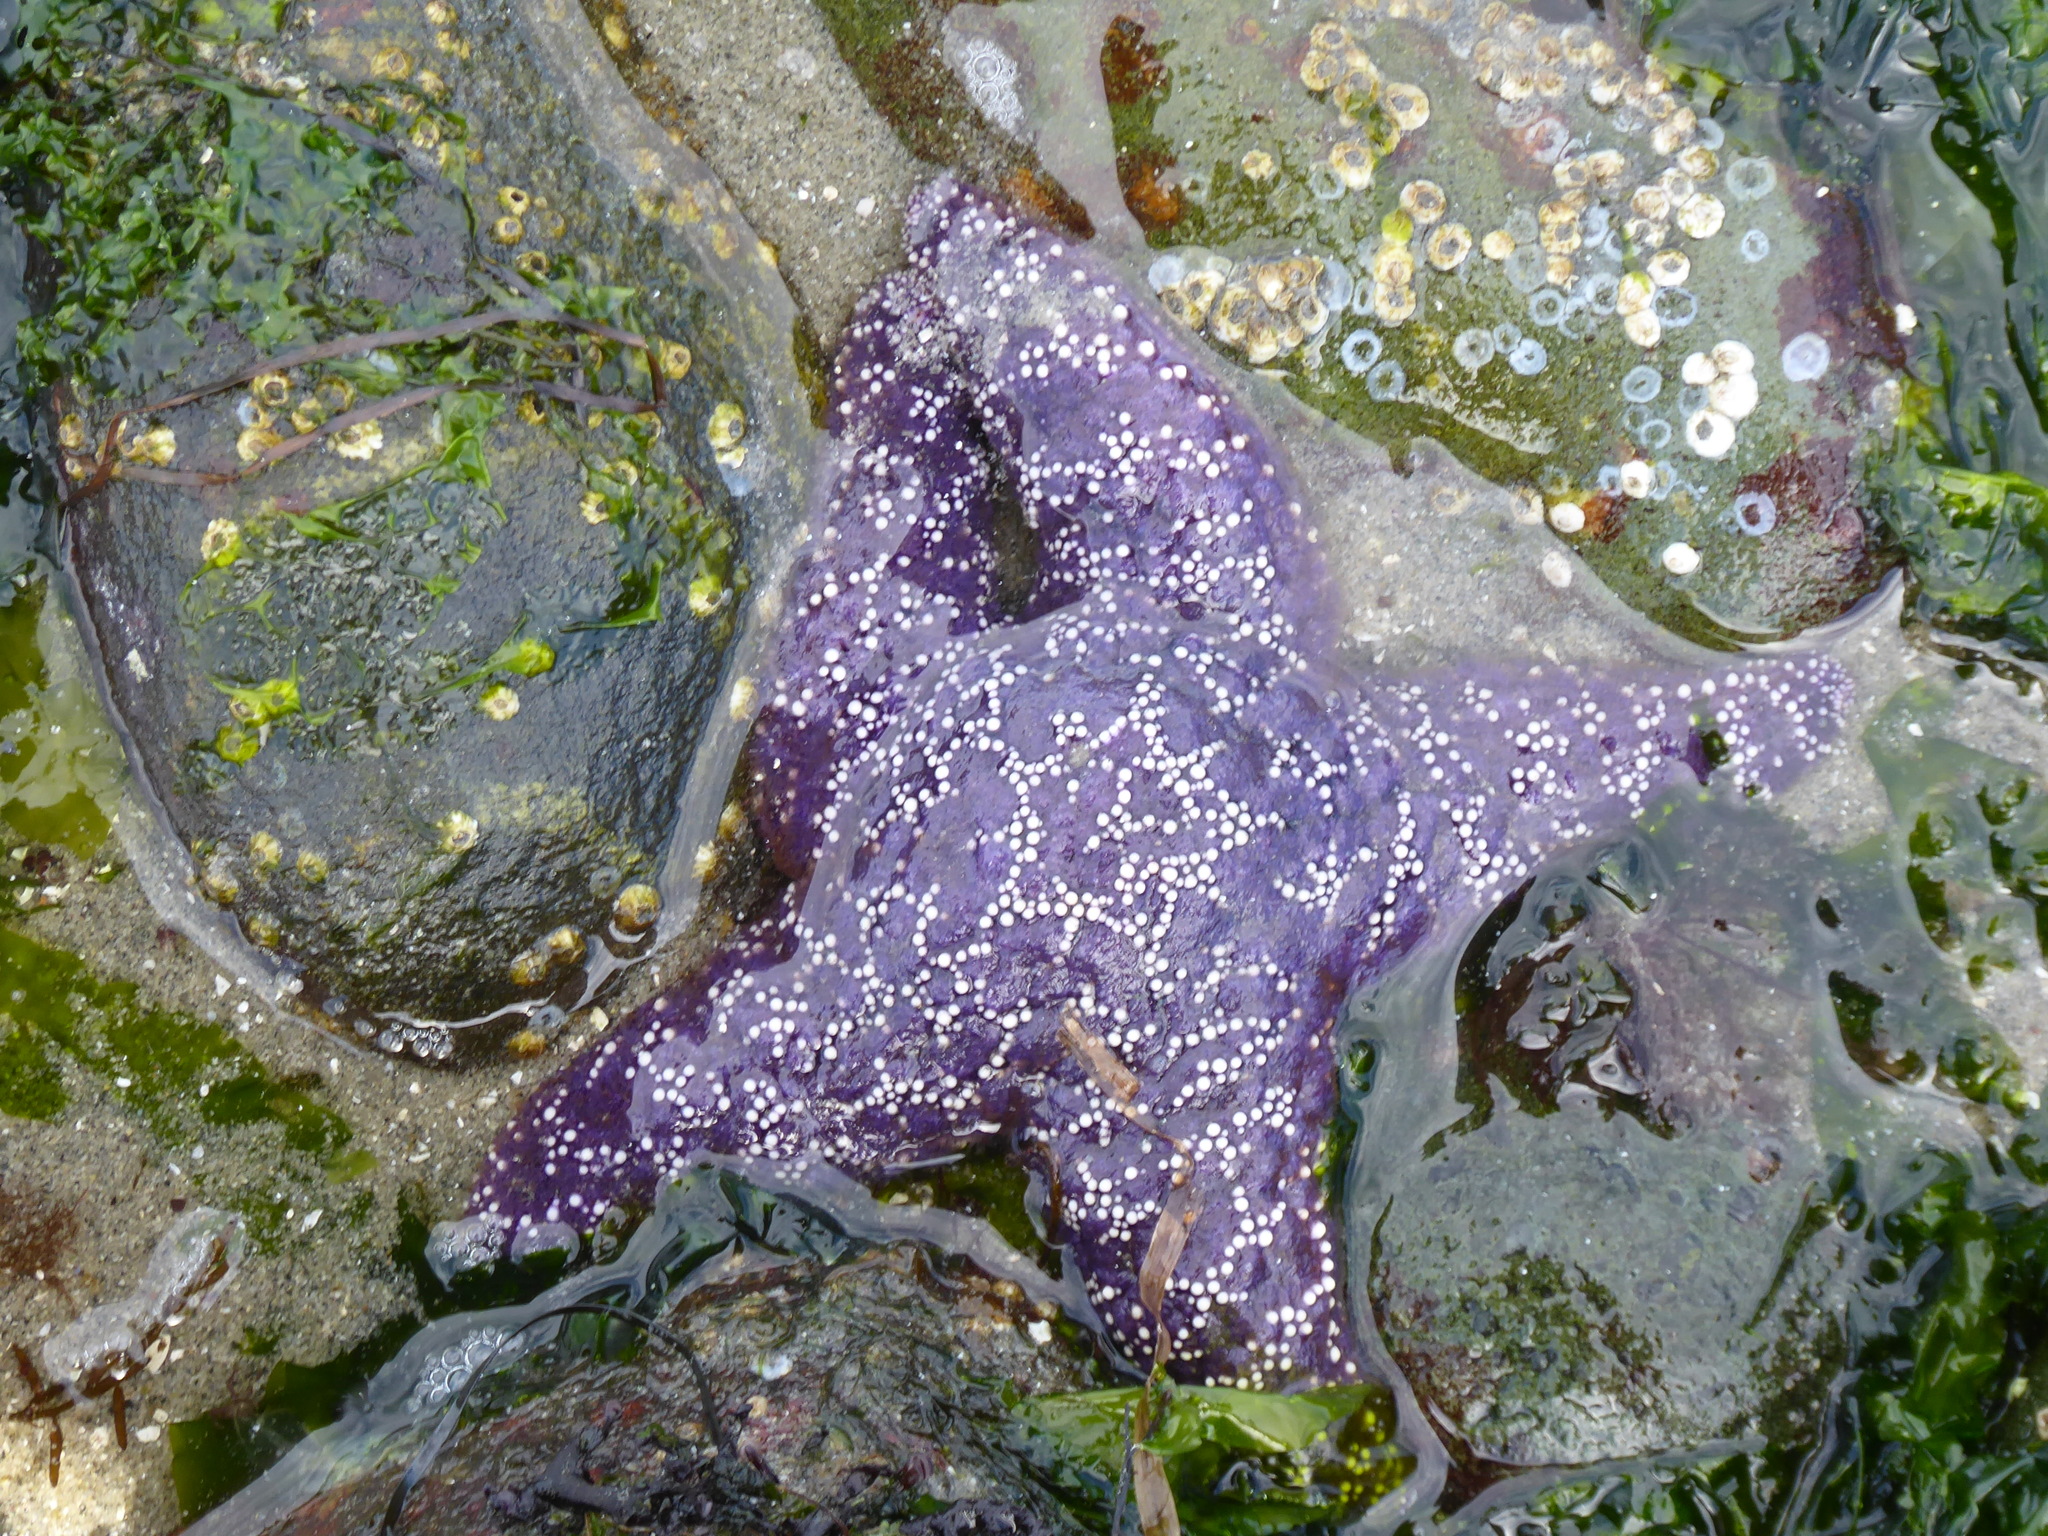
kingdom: Animalia
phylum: Echinodermata
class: Asteroidea
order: Forcipulatida
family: Asteriidae
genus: Pisaster
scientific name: Pisaster ochraceus
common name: Ochre stars
